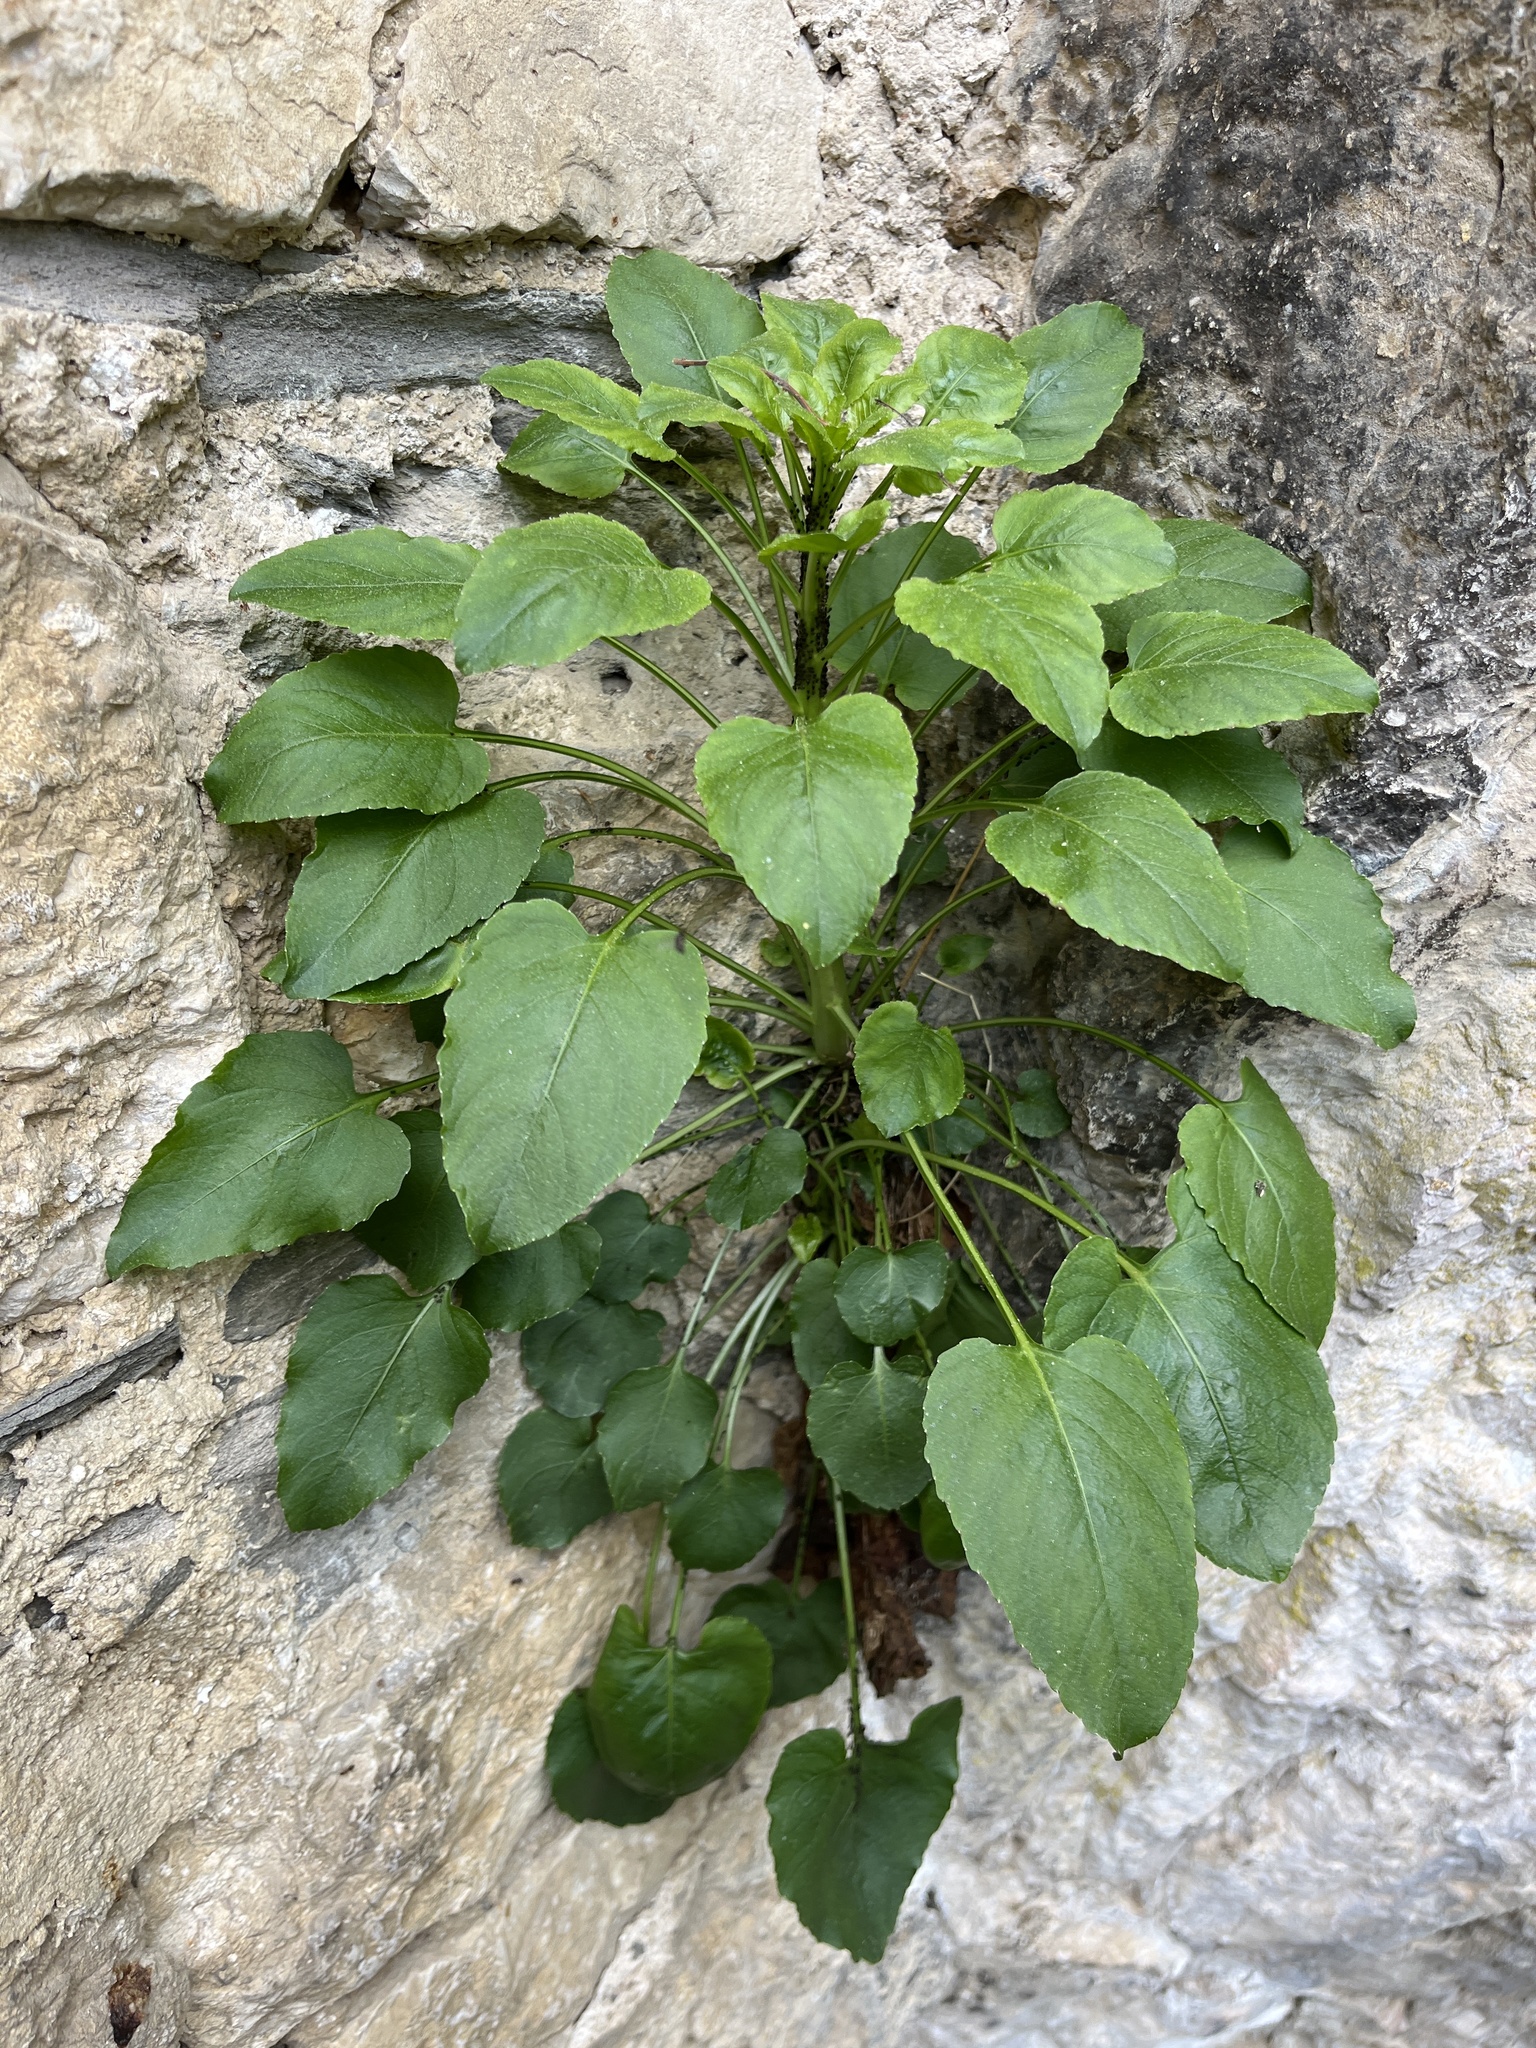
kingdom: Plantae
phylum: Tracheophyta
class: Magnoliopsida
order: Asterales
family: Campanulaceae
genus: Campanula
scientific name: Campanula pyramidalis
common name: Chimney bellflower
